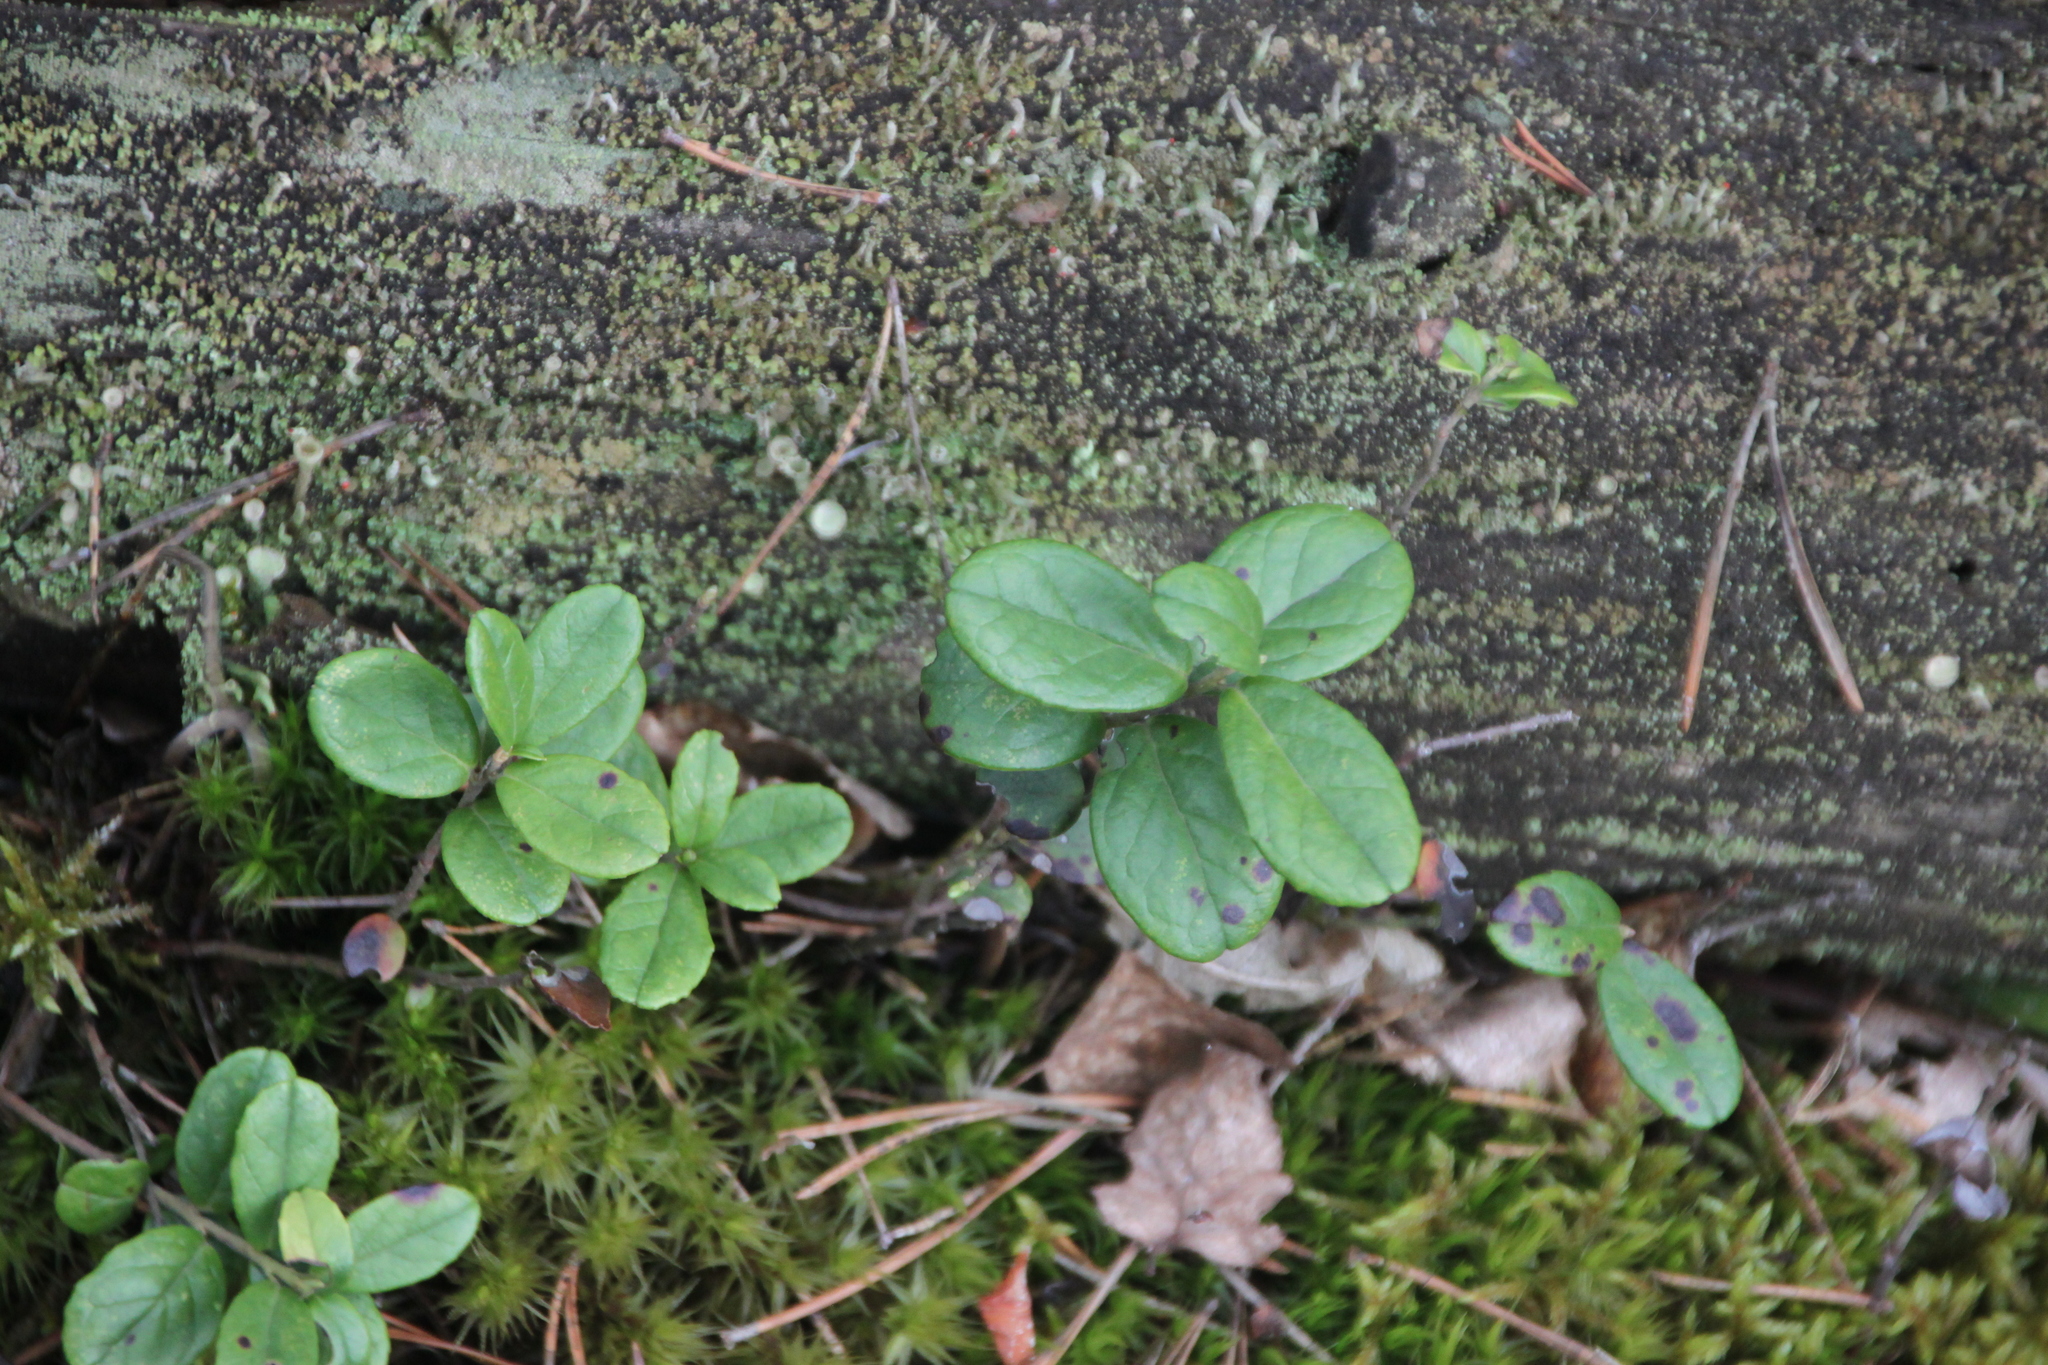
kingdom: Plantae
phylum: Tracheophyta
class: Magnoliopsida
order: Ericales
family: Ericaceae
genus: Vaccinium
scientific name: Vaccinium vitis-idaea
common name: Cowberry
